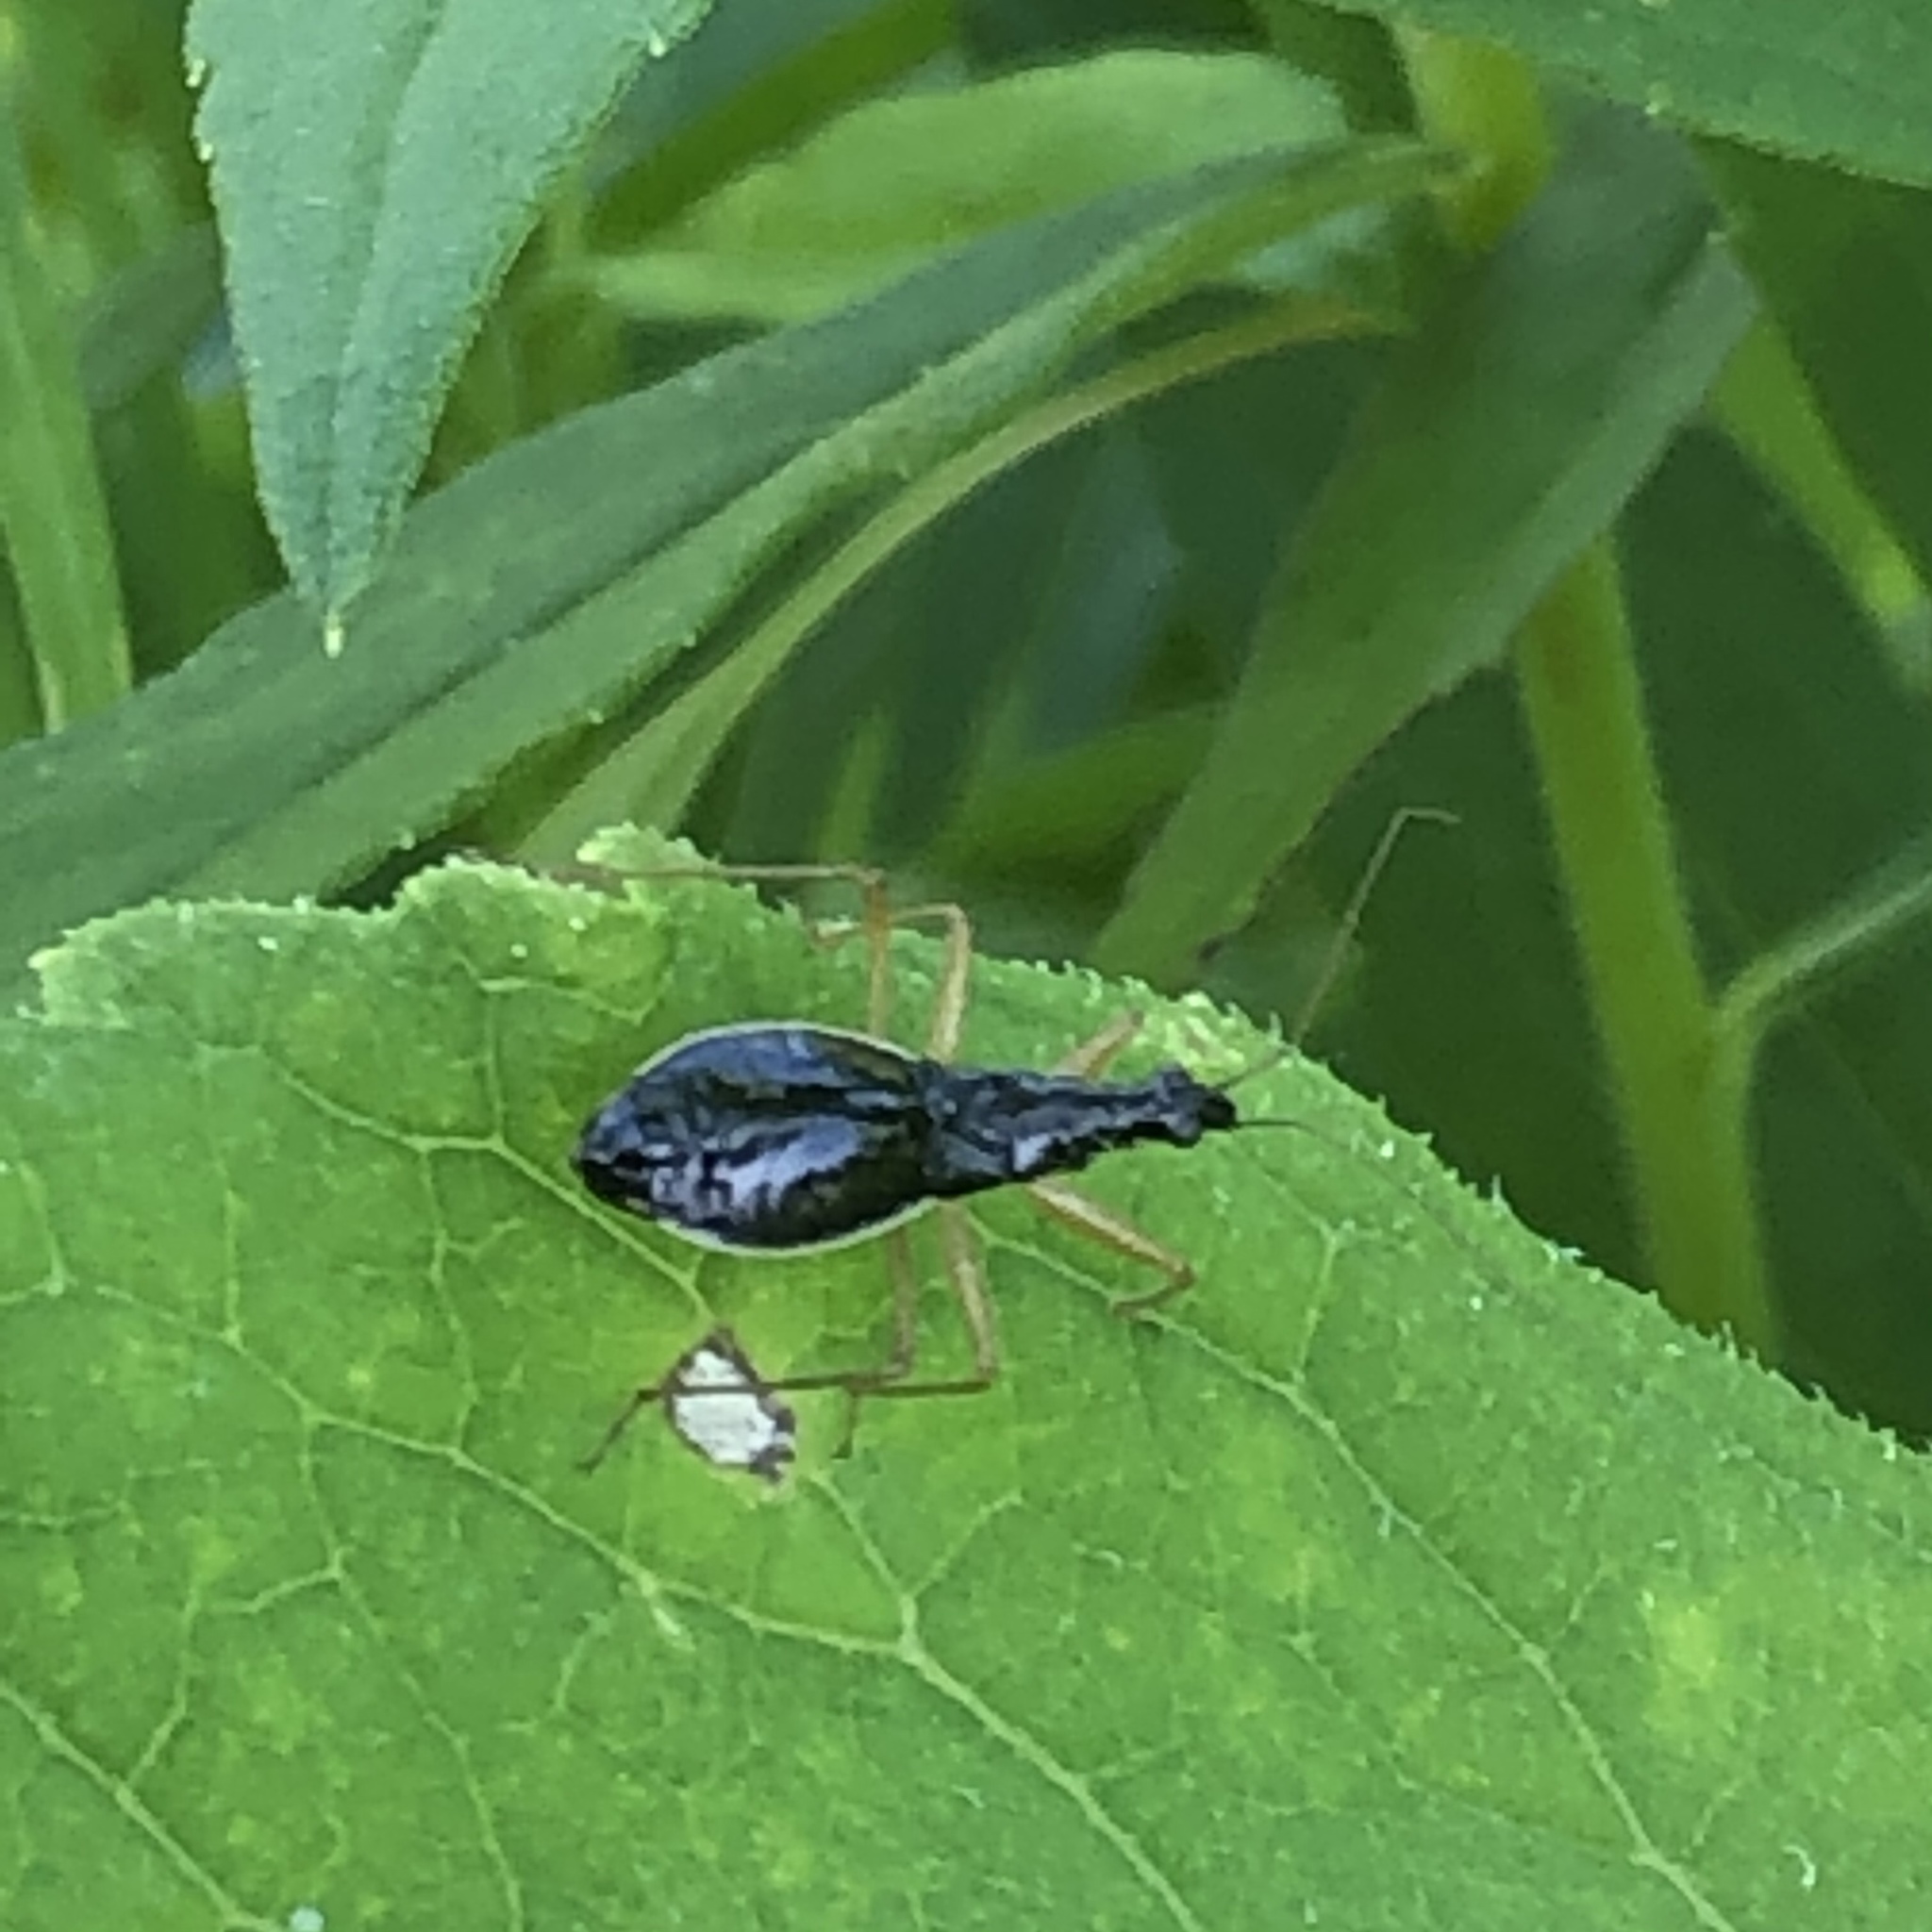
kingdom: Animalia
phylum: Arthropoda
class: Insecta
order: Hemiptera
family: Nabidae
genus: Nabis
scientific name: Nabis
